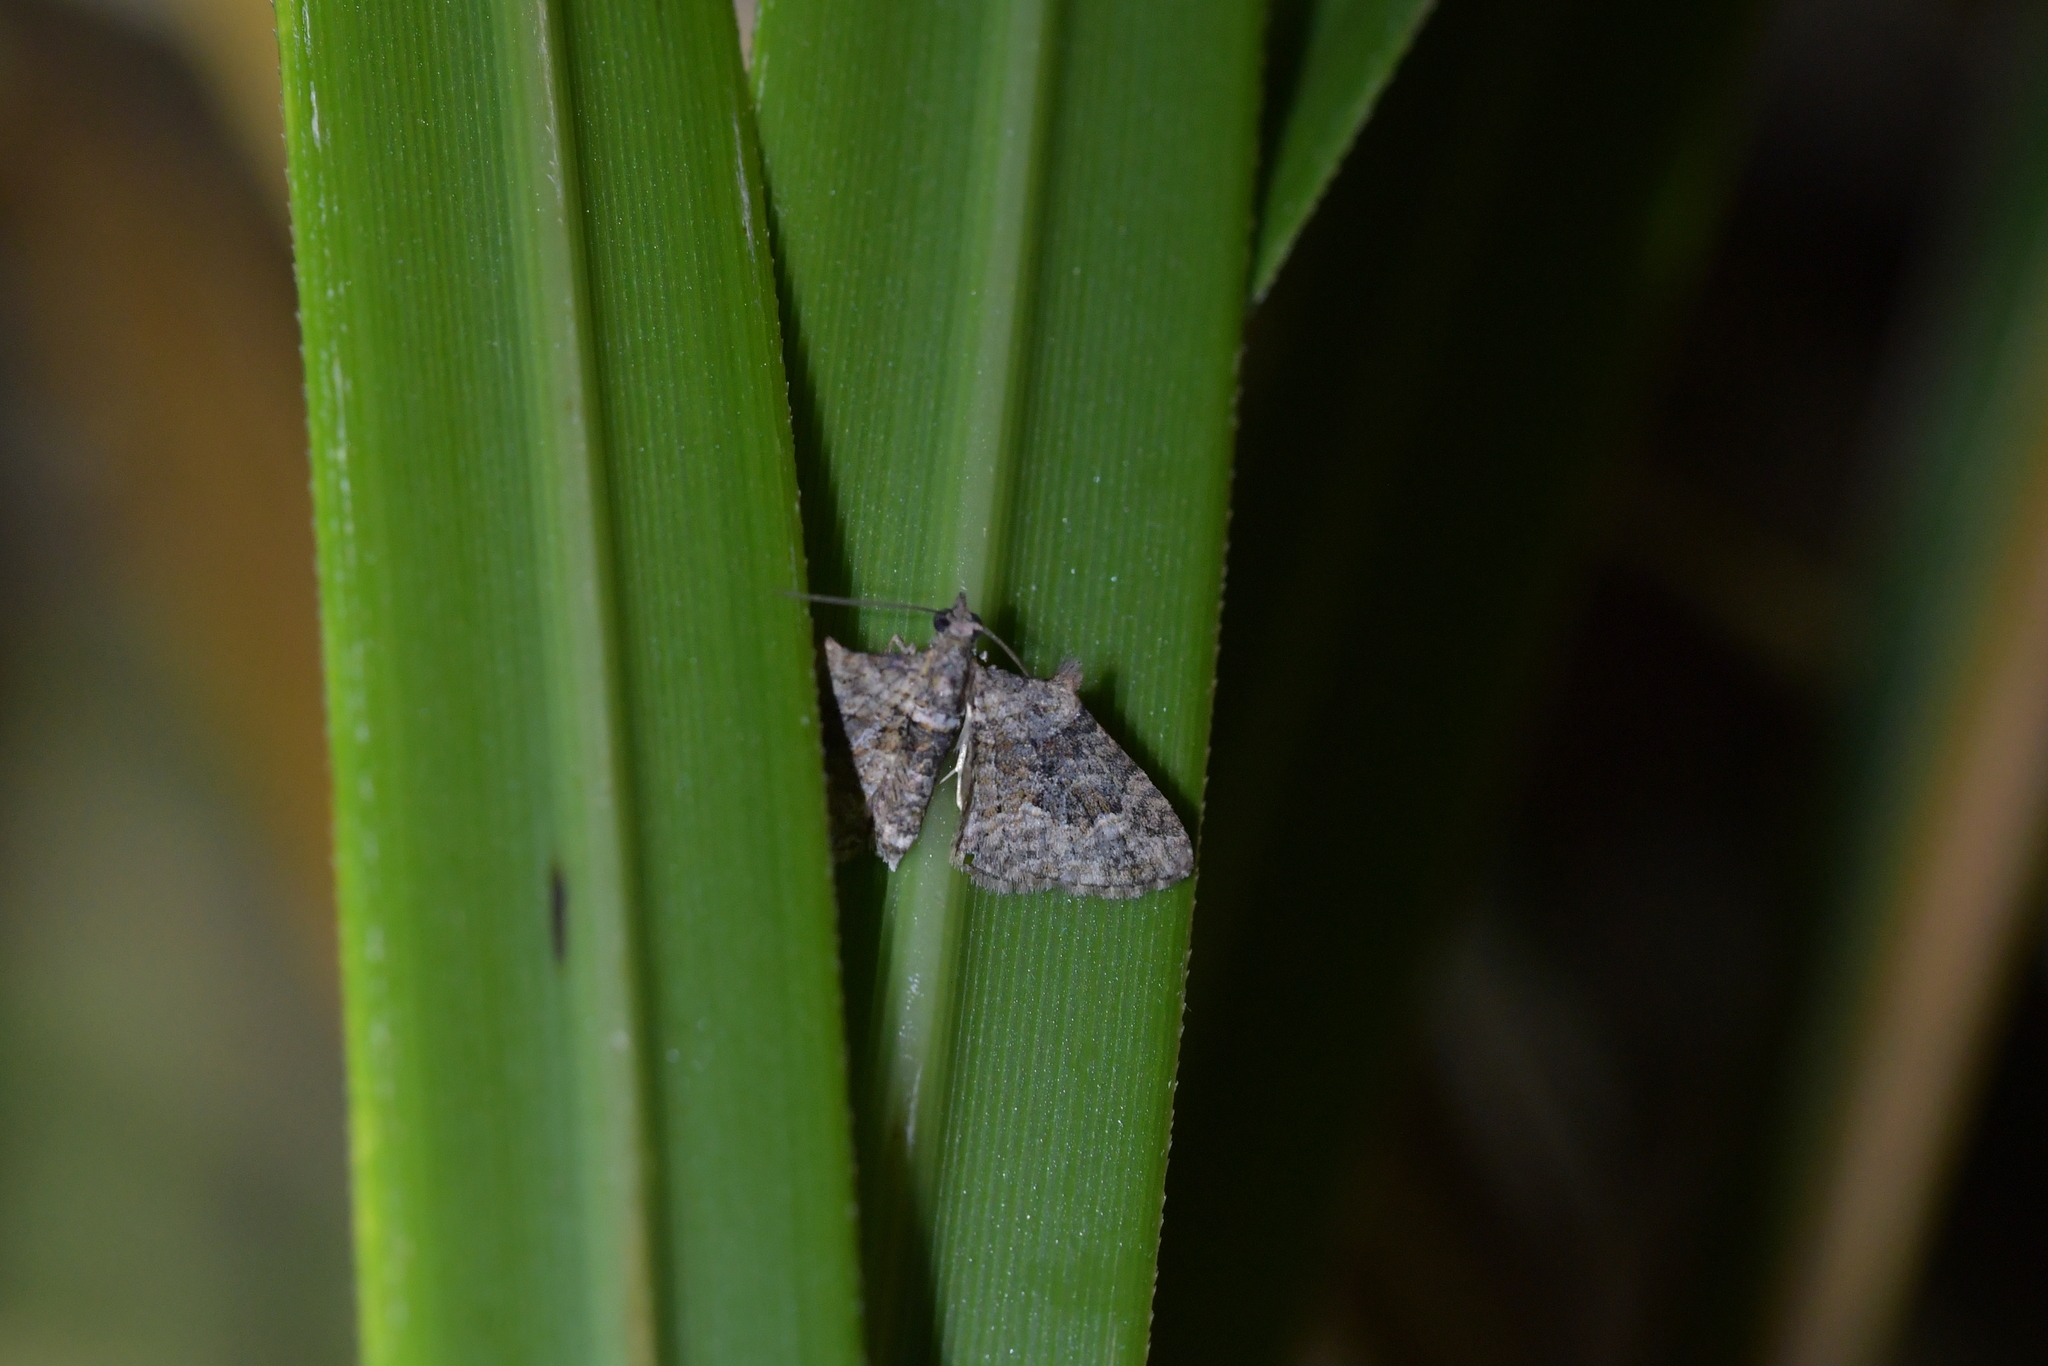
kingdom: Animalia
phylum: Arthropoda
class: Insecta
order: Lepidoptera
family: Geometridae
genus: Phrissogonus
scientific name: Phrissogonus laticostata
